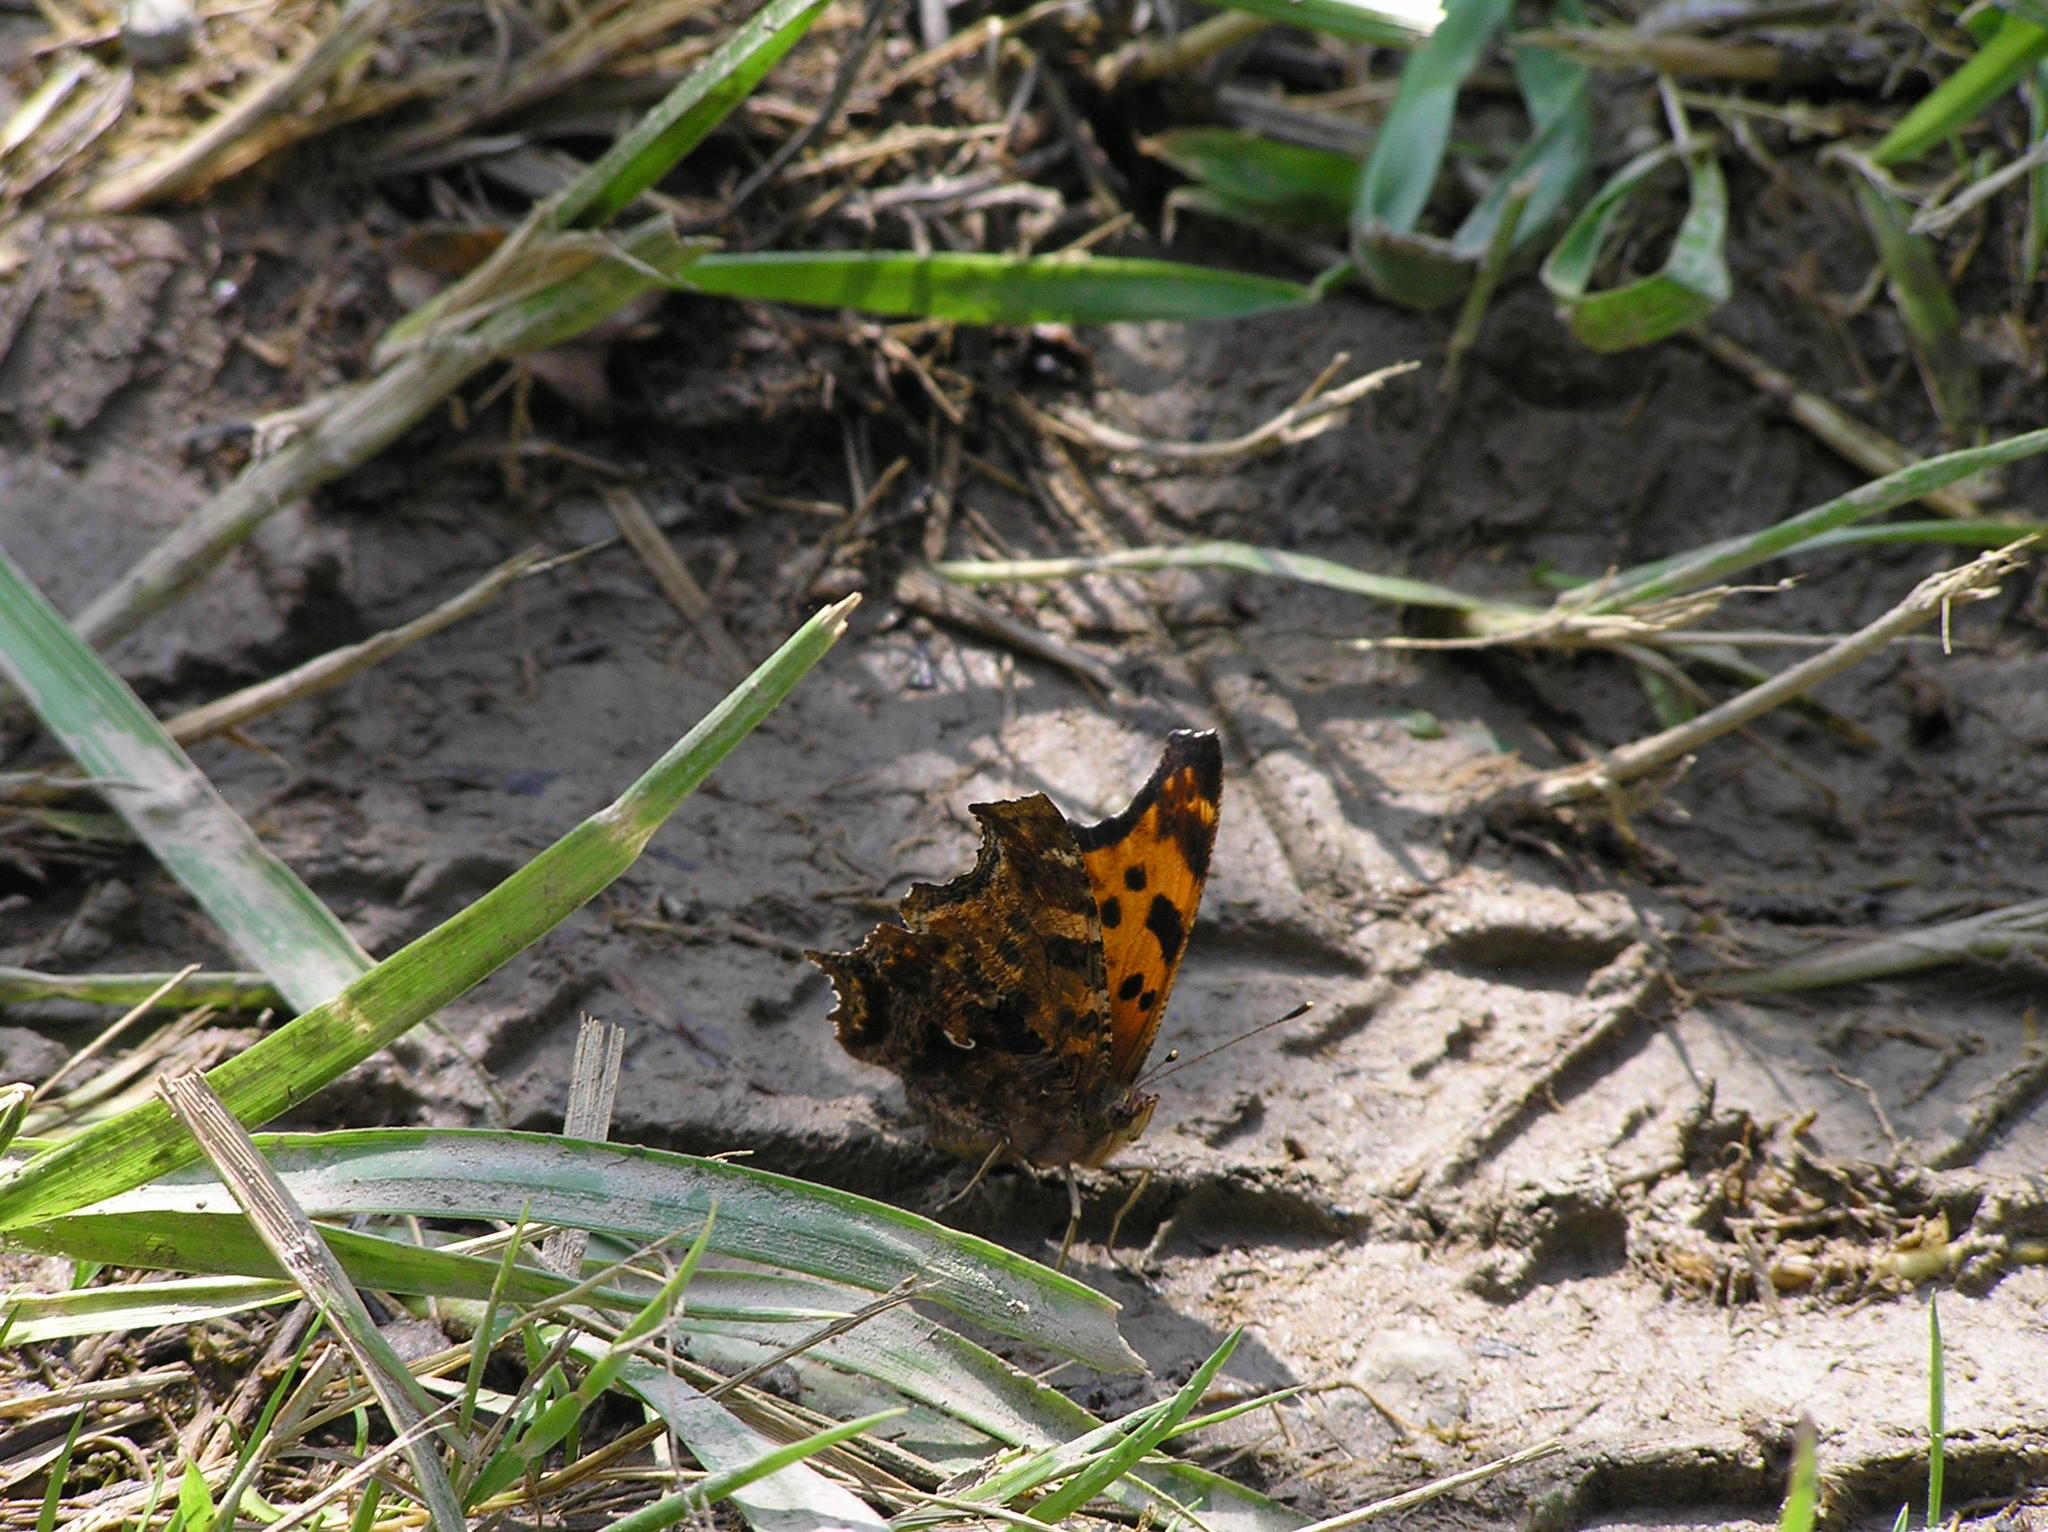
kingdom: Animalia
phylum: Arthropoda
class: Insecta
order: Lepidoptera
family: Nymphalidae
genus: Polygonia
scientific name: Polygonia comma
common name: Eastern comma
